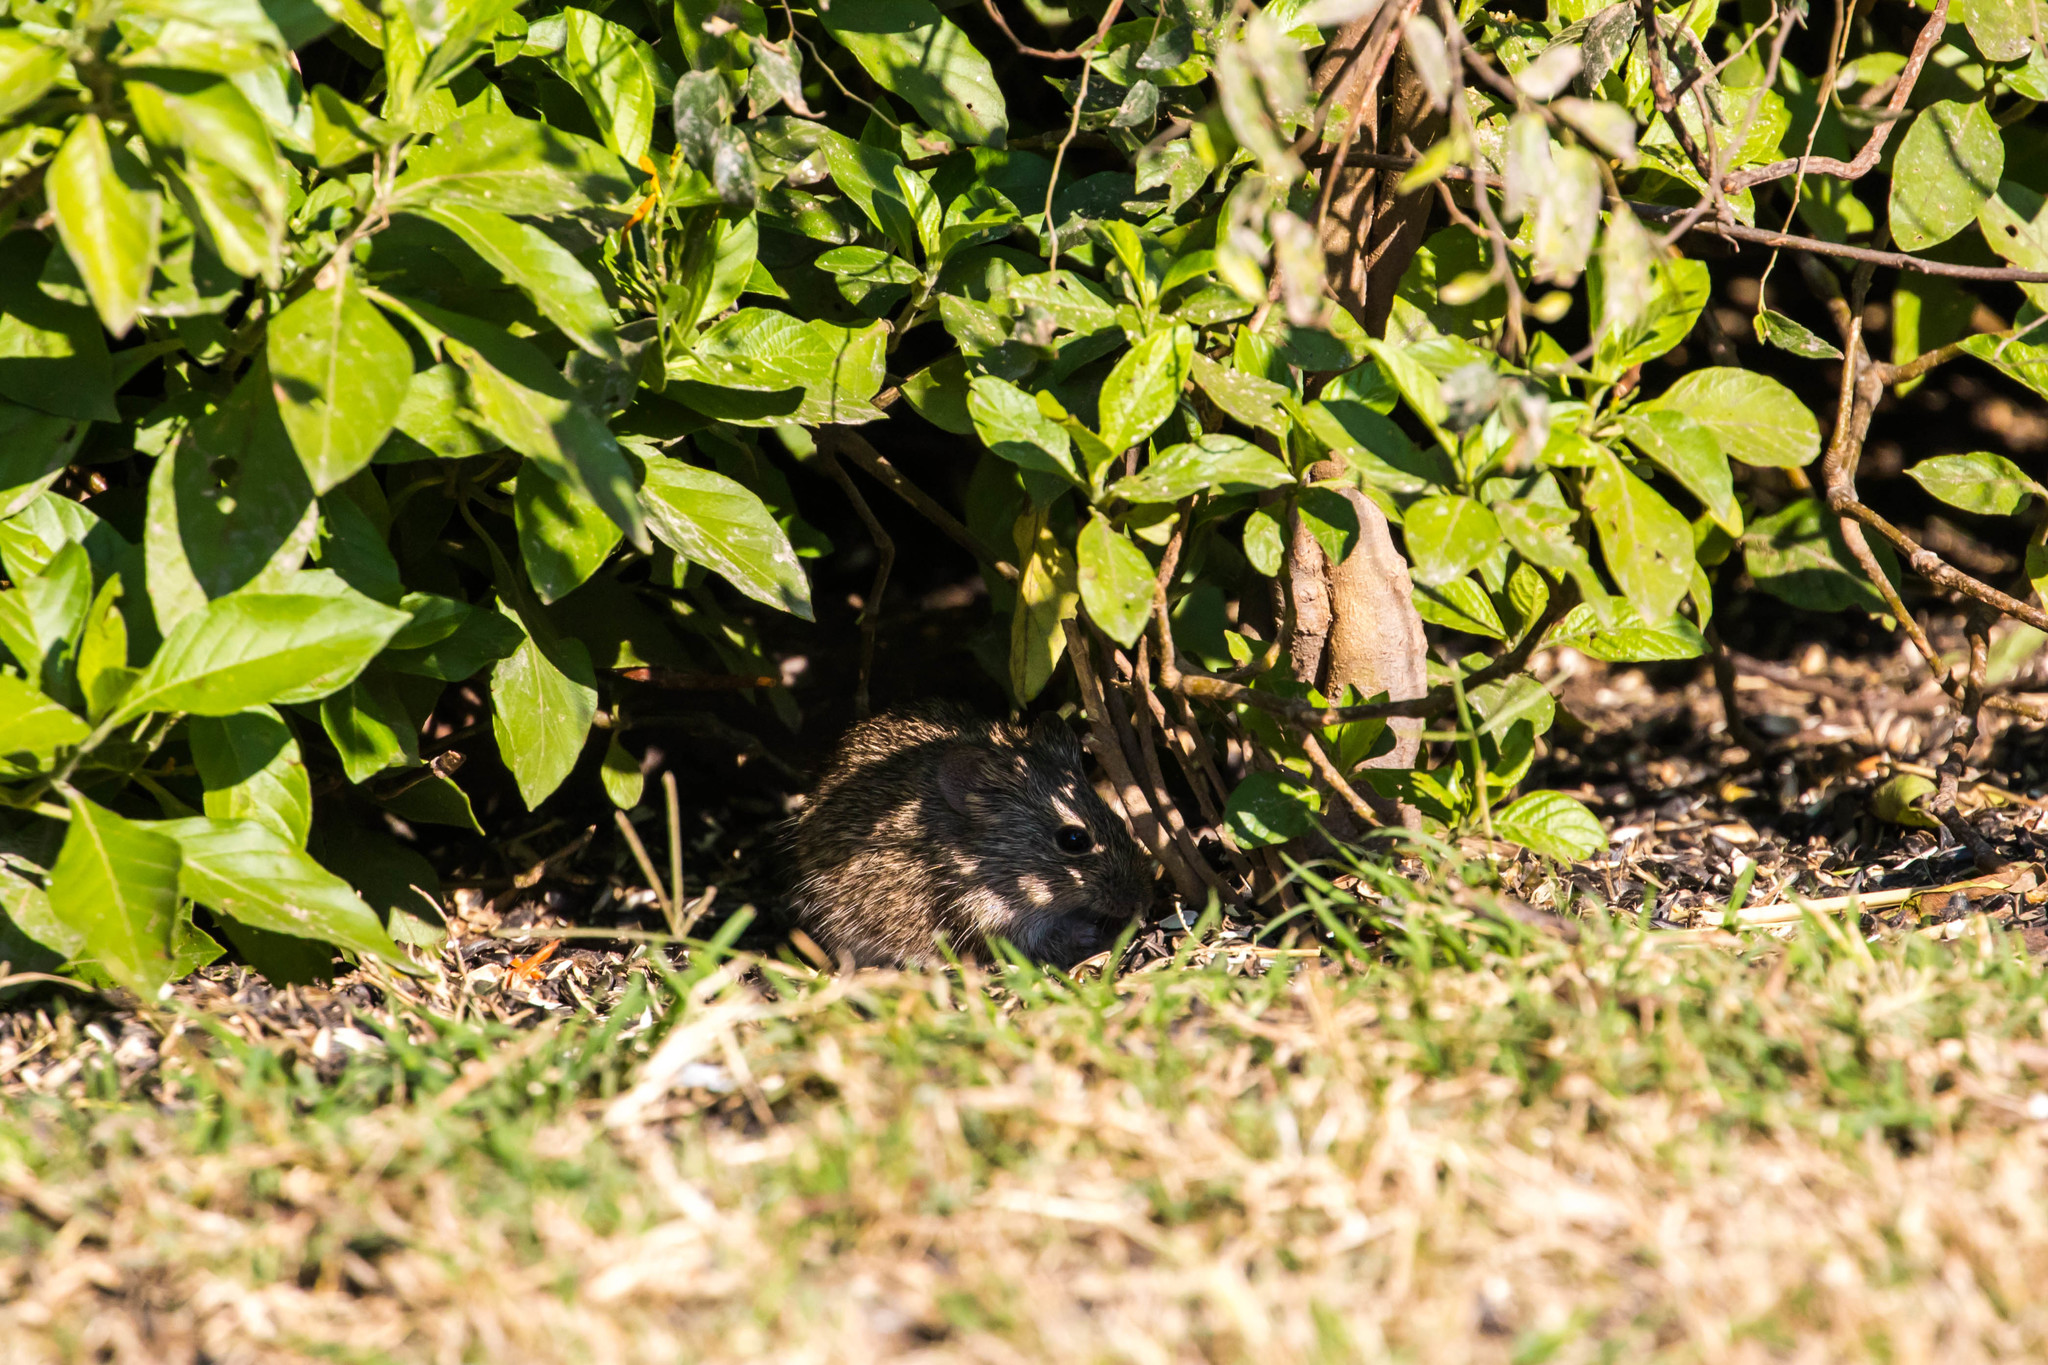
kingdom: Animalia
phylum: Chordata
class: Mammalia
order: Rodentia
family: Cricetidae
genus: Sigmodon
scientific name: Sigmodon hispidus
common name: Hispid cotton rat
